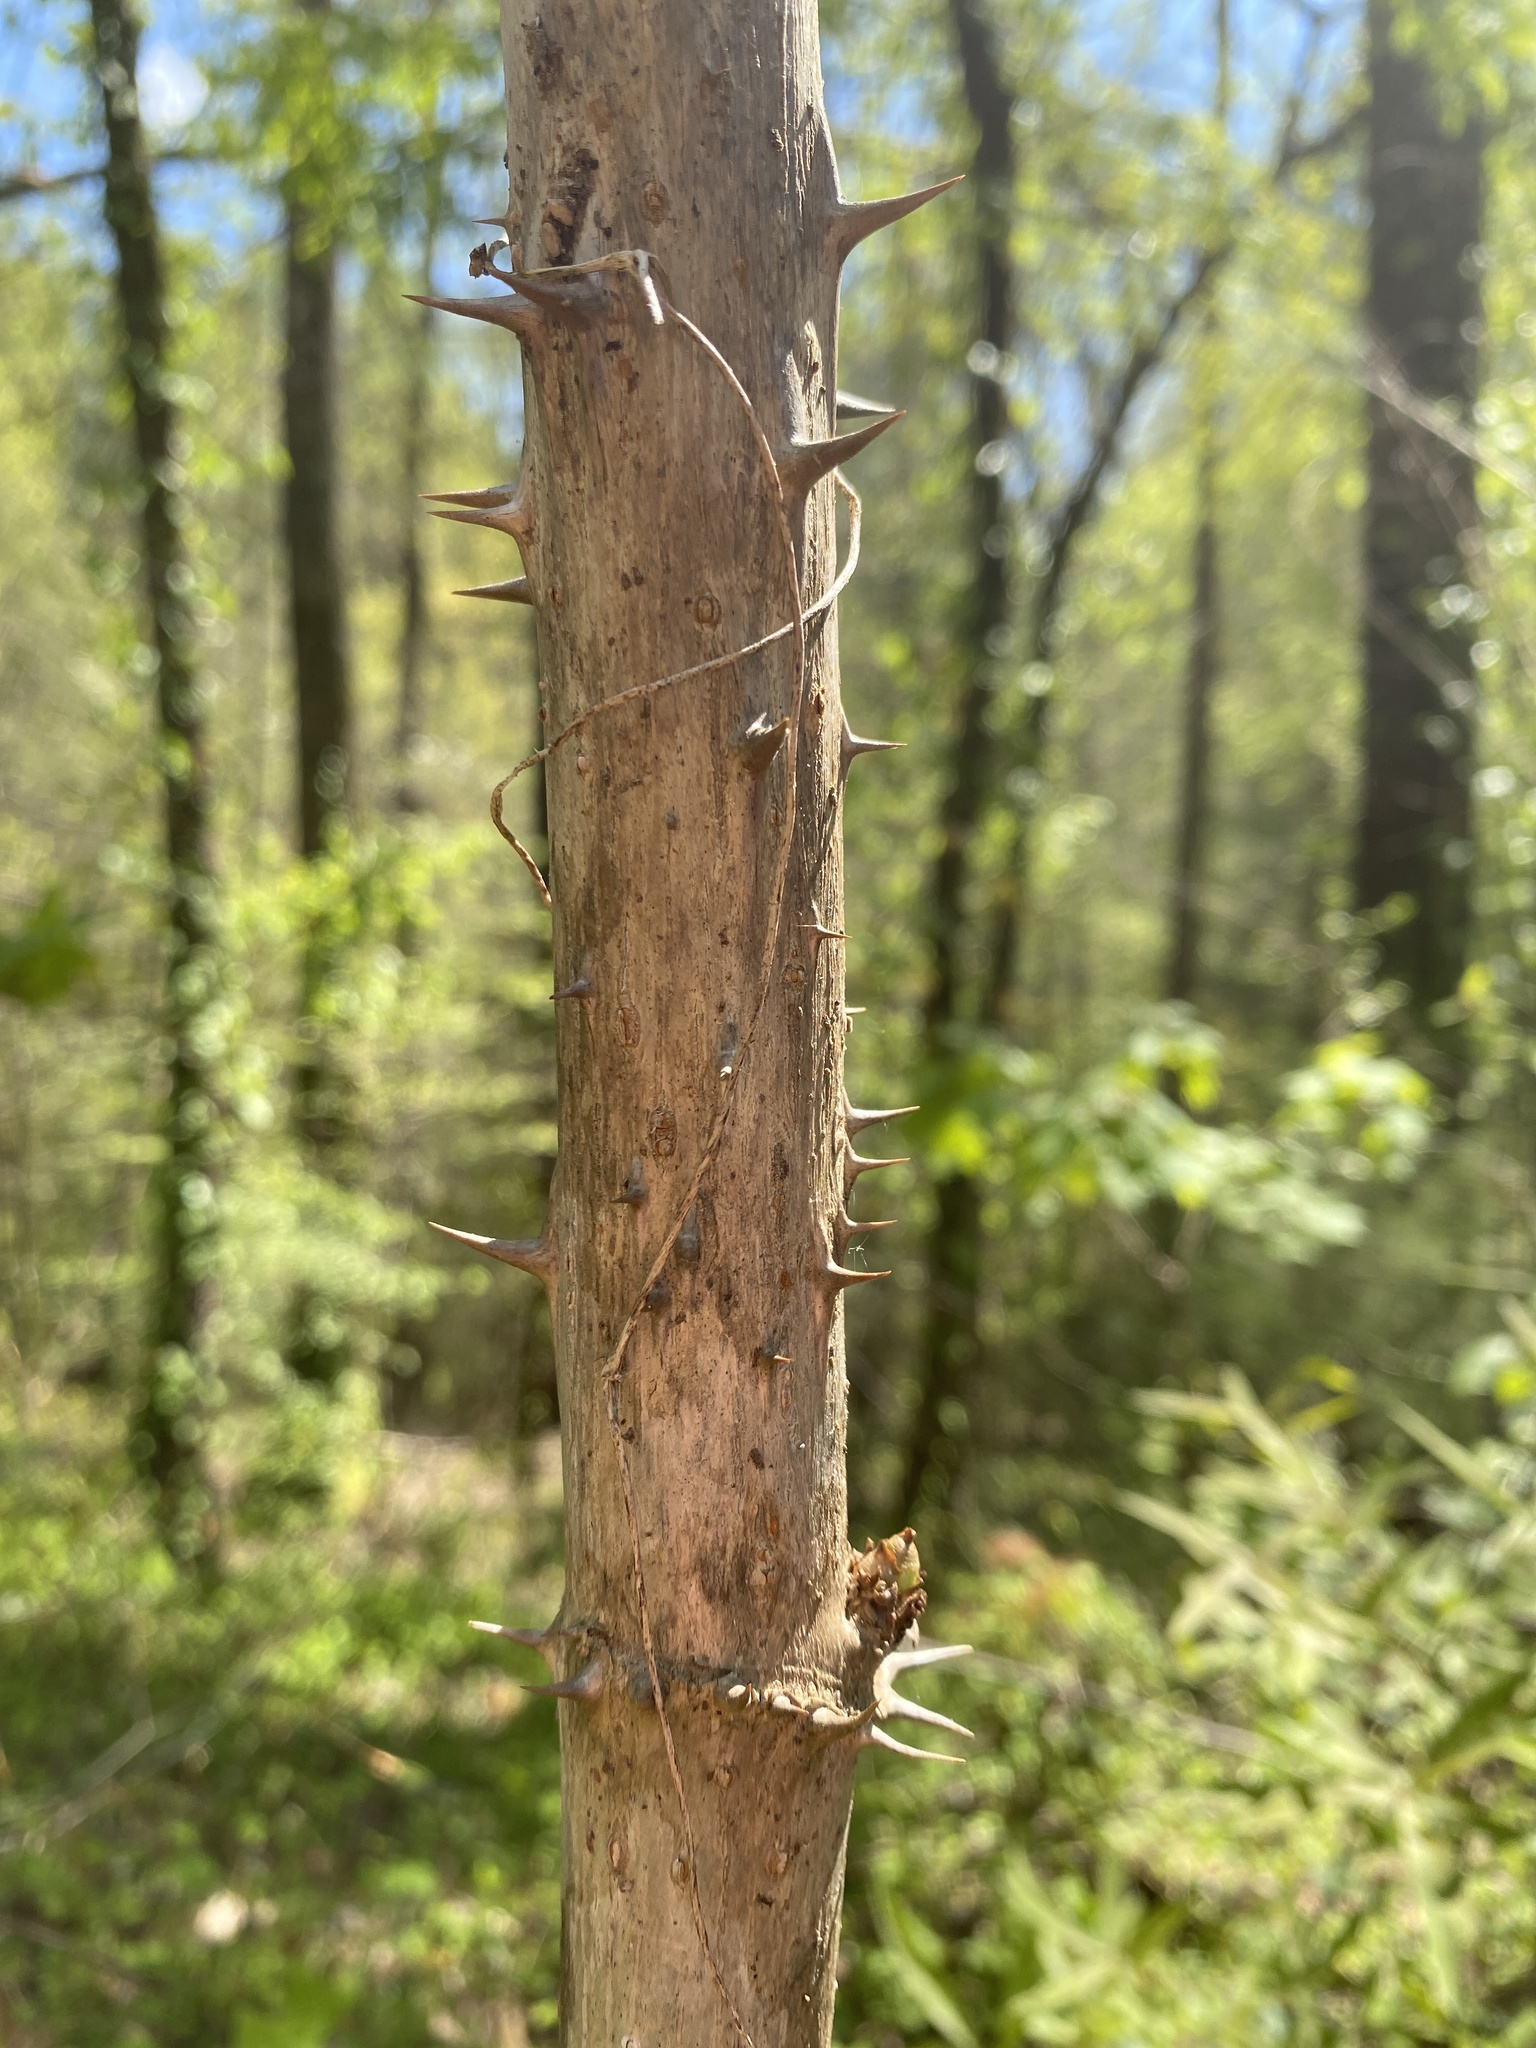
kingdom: Plantae
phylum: Tracheophyta
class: Magnoliopsida
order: Apiales
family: Araliaceae
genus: Aralia
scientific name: Aralia spinosa
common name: Hercules'-club
